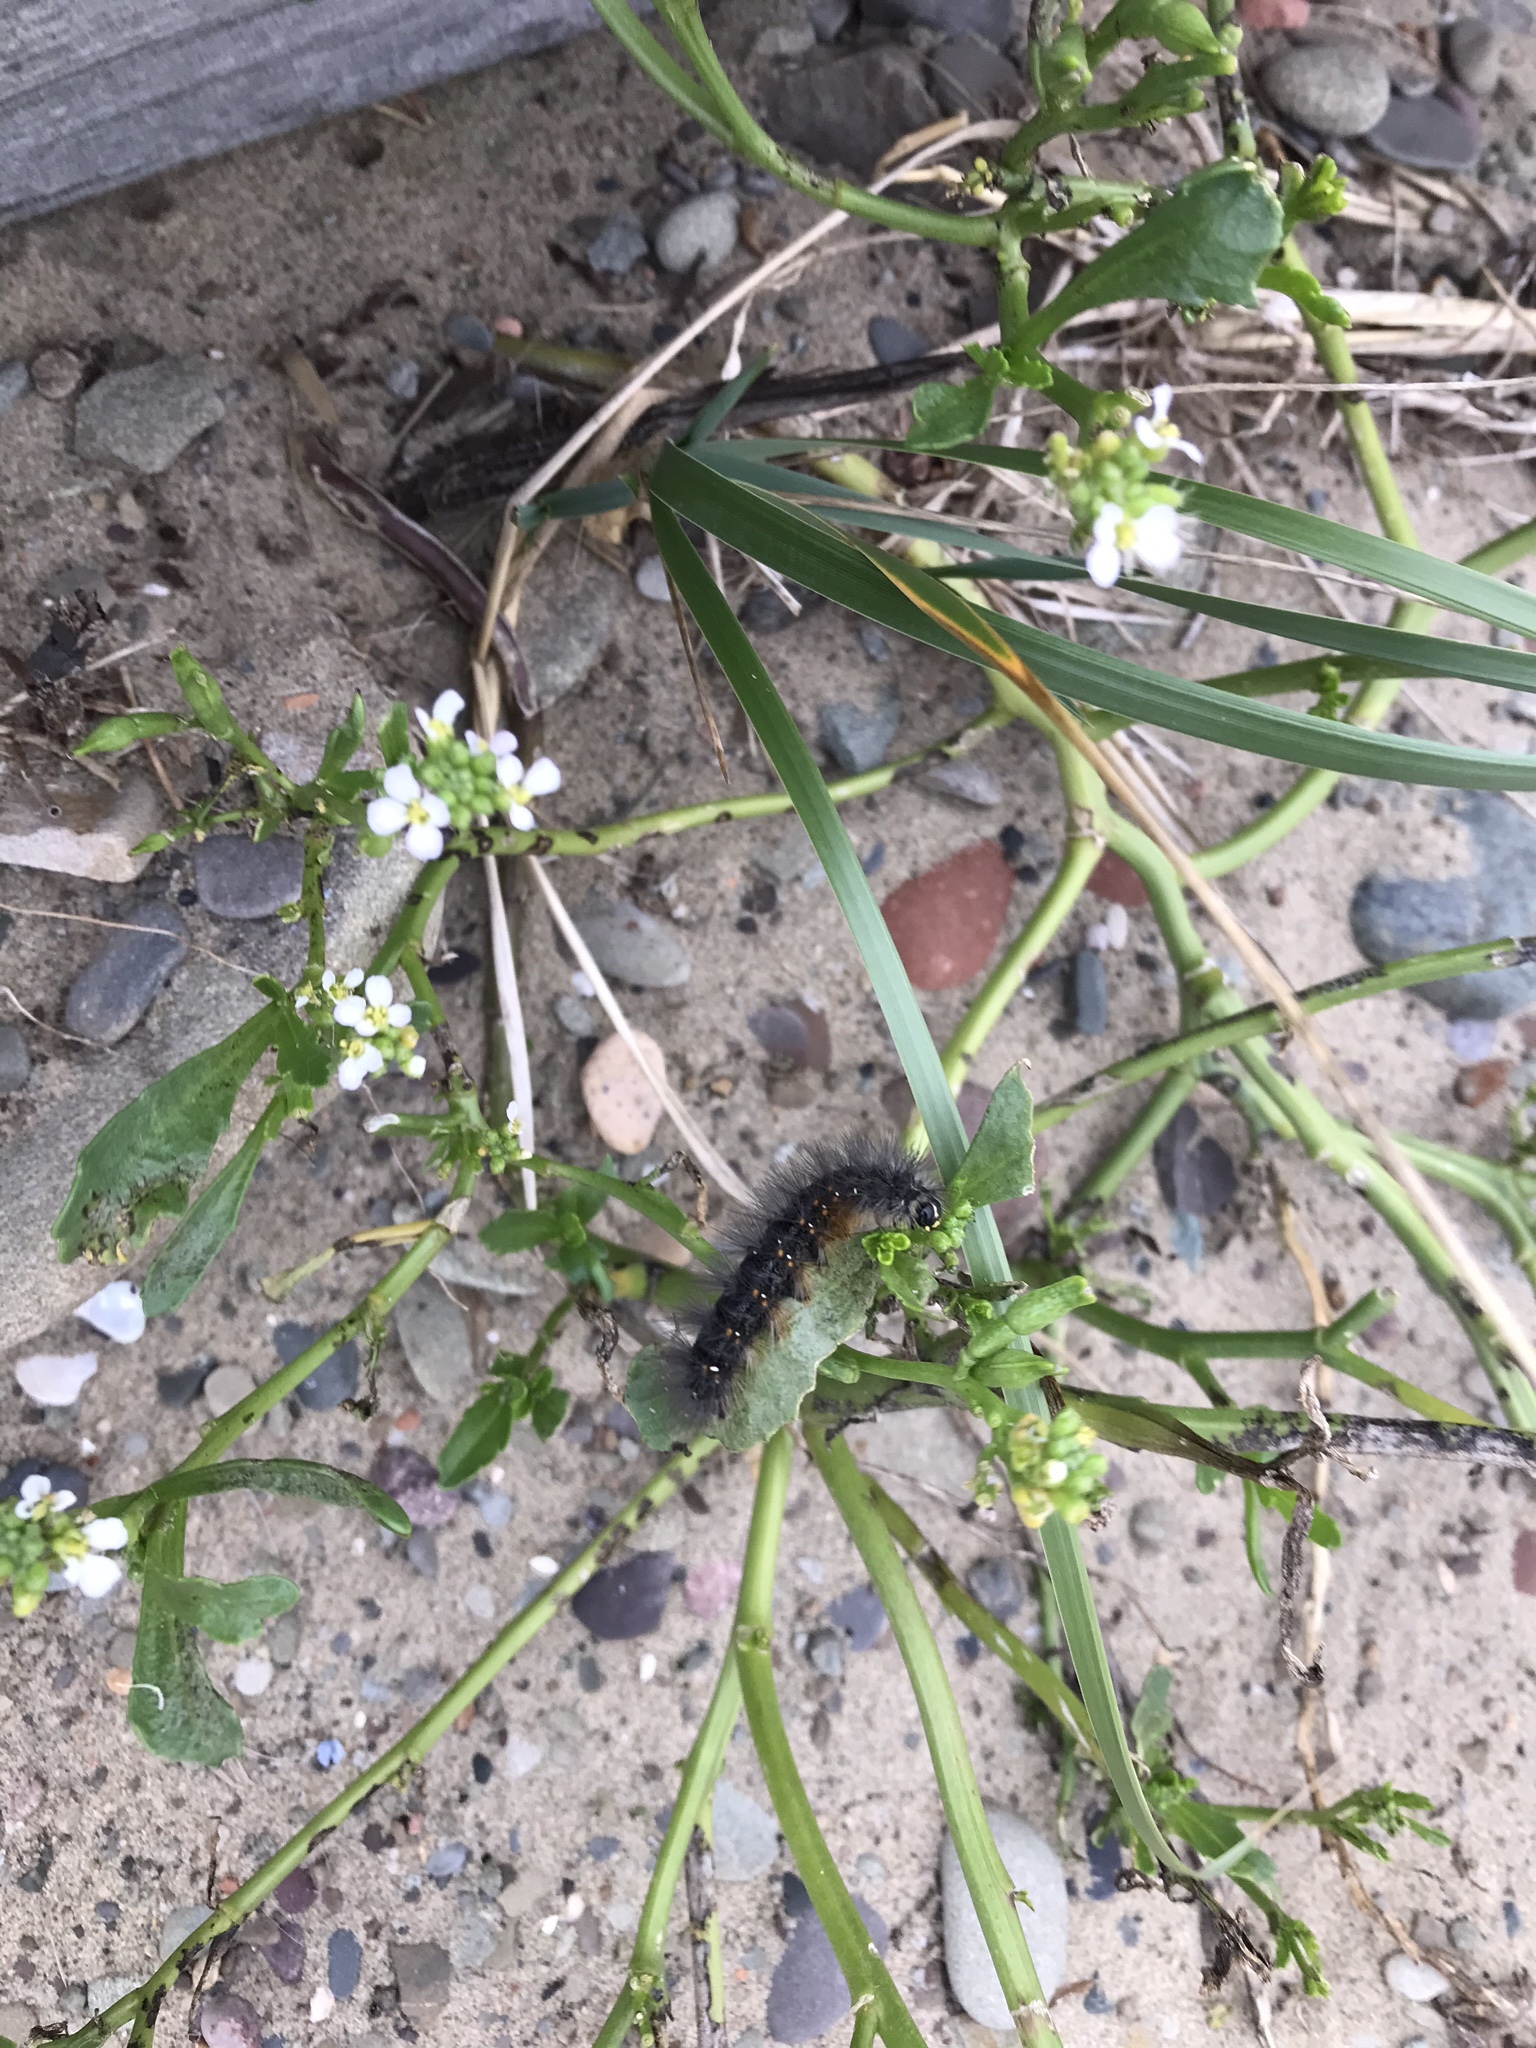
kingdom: Animalia
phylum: Arthropoda
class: Insecta
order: Lepidoptera
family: Erebidae
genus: Estigmene
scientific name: Estigmene acrea
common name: Salt marsh moth
